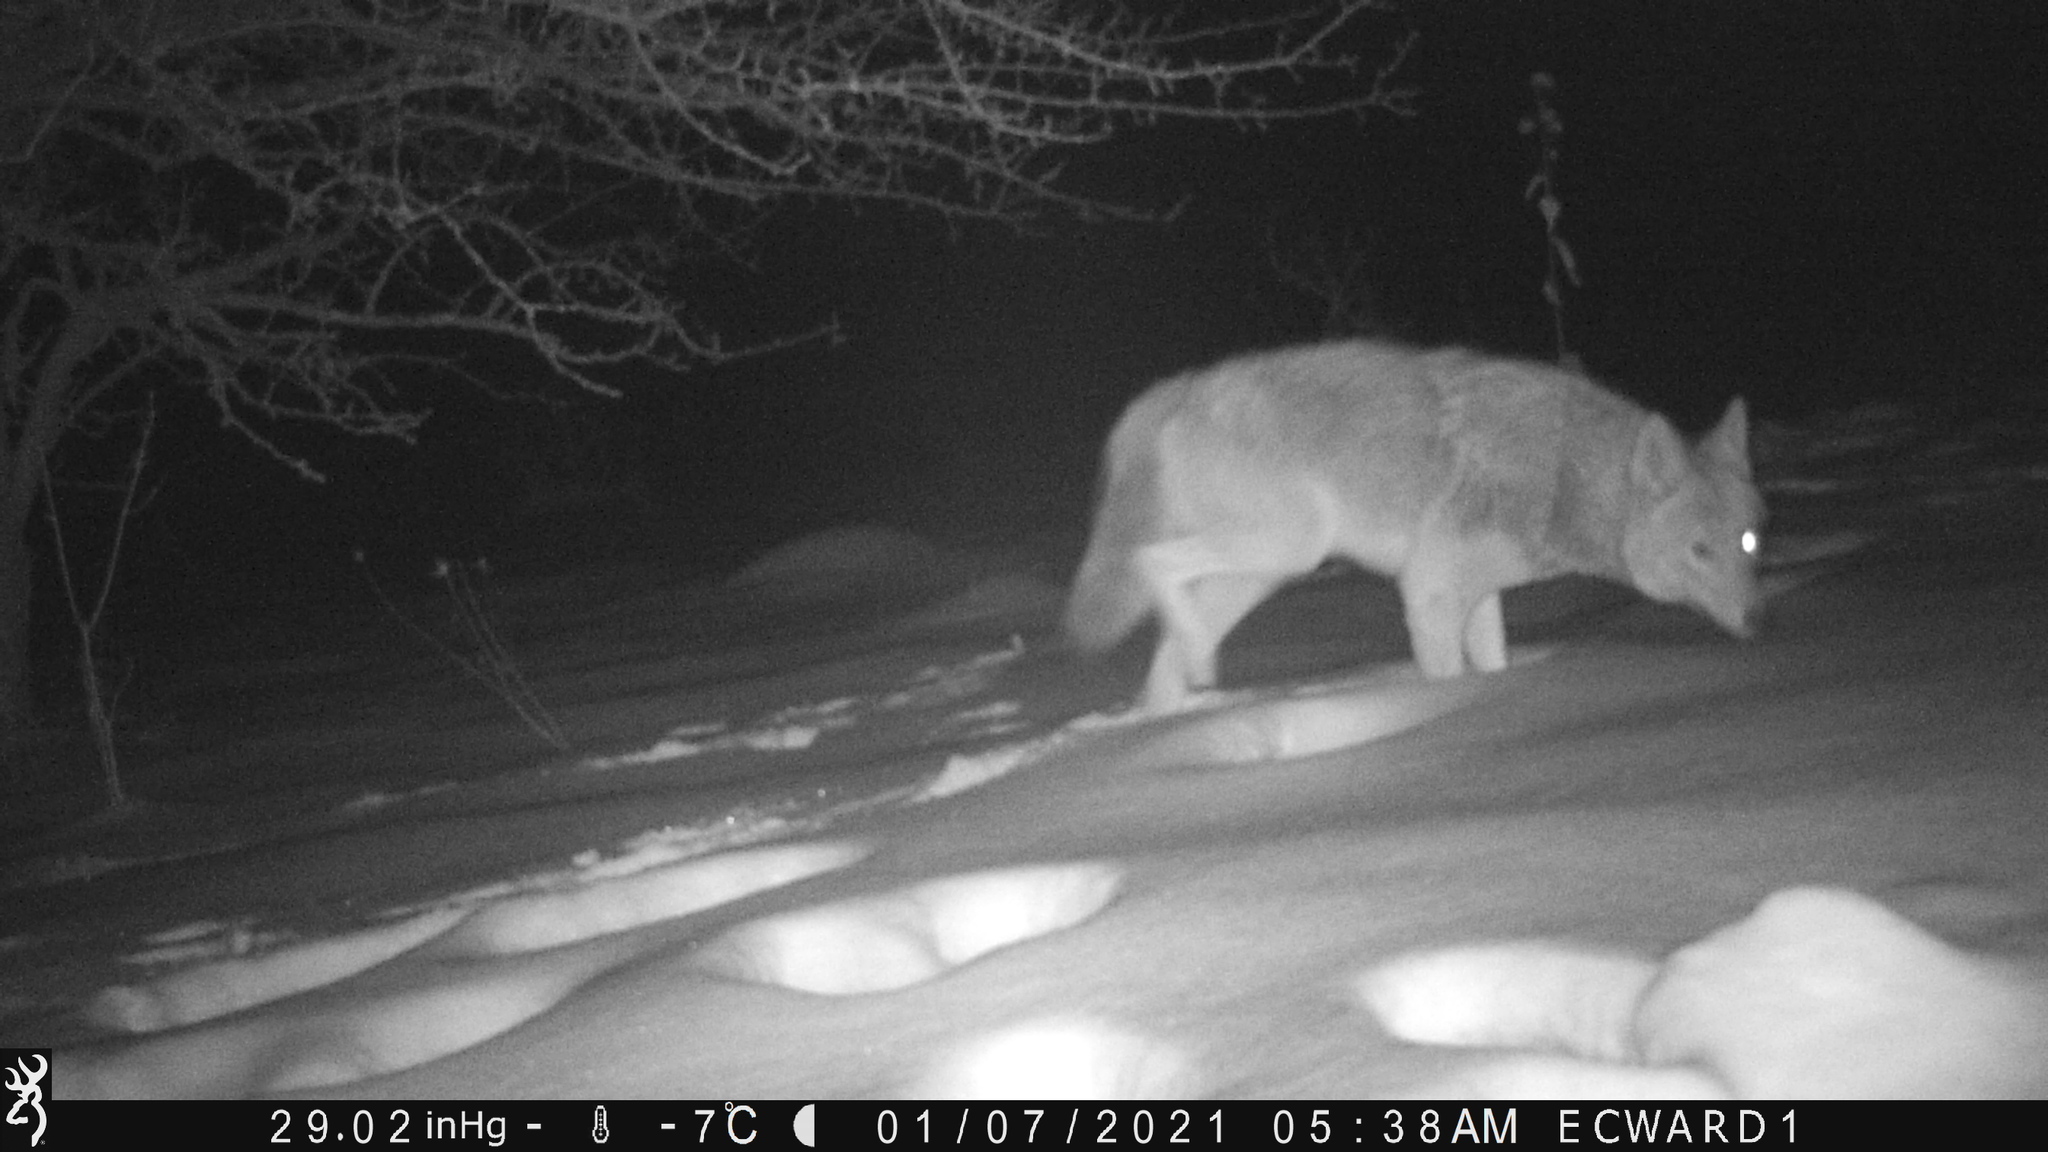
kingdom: Animalia
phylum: Chordata
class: Mammalia
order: Carnivora
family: Canidae
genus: Canis
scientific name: Canis latrans
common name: Coyote
